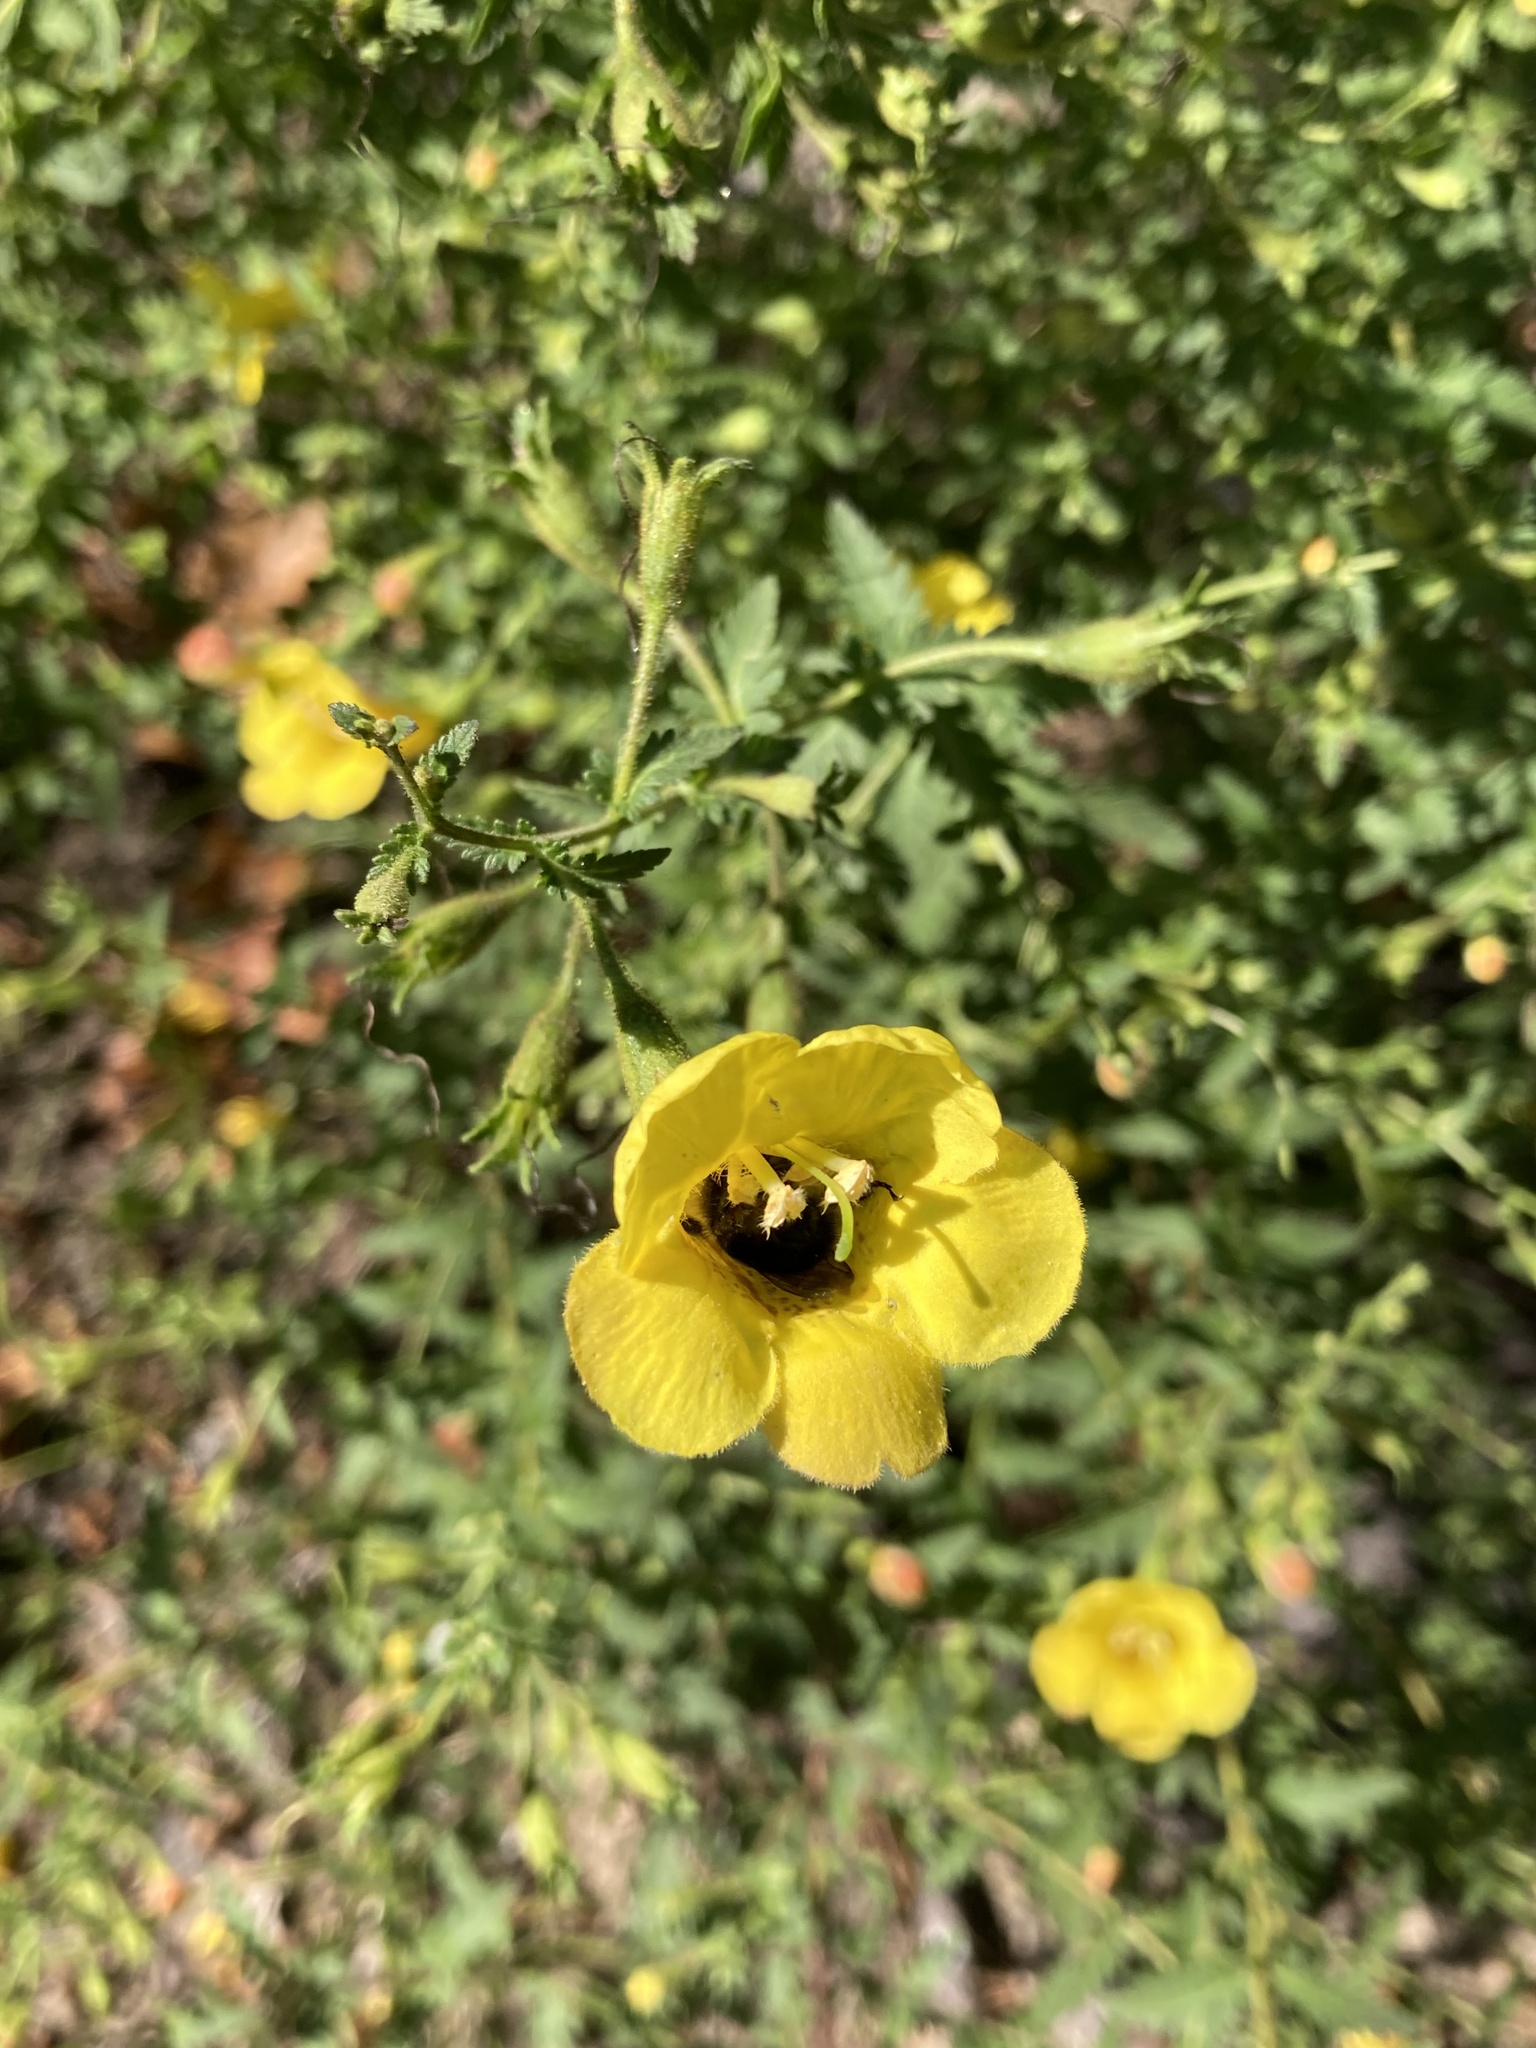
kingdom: Animalia
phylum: Arthropoda
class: Insecta
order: Hymenoptera
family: Apidae
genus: Bombus
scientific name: Bombus impatiens
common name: Common eastern bumble bee
